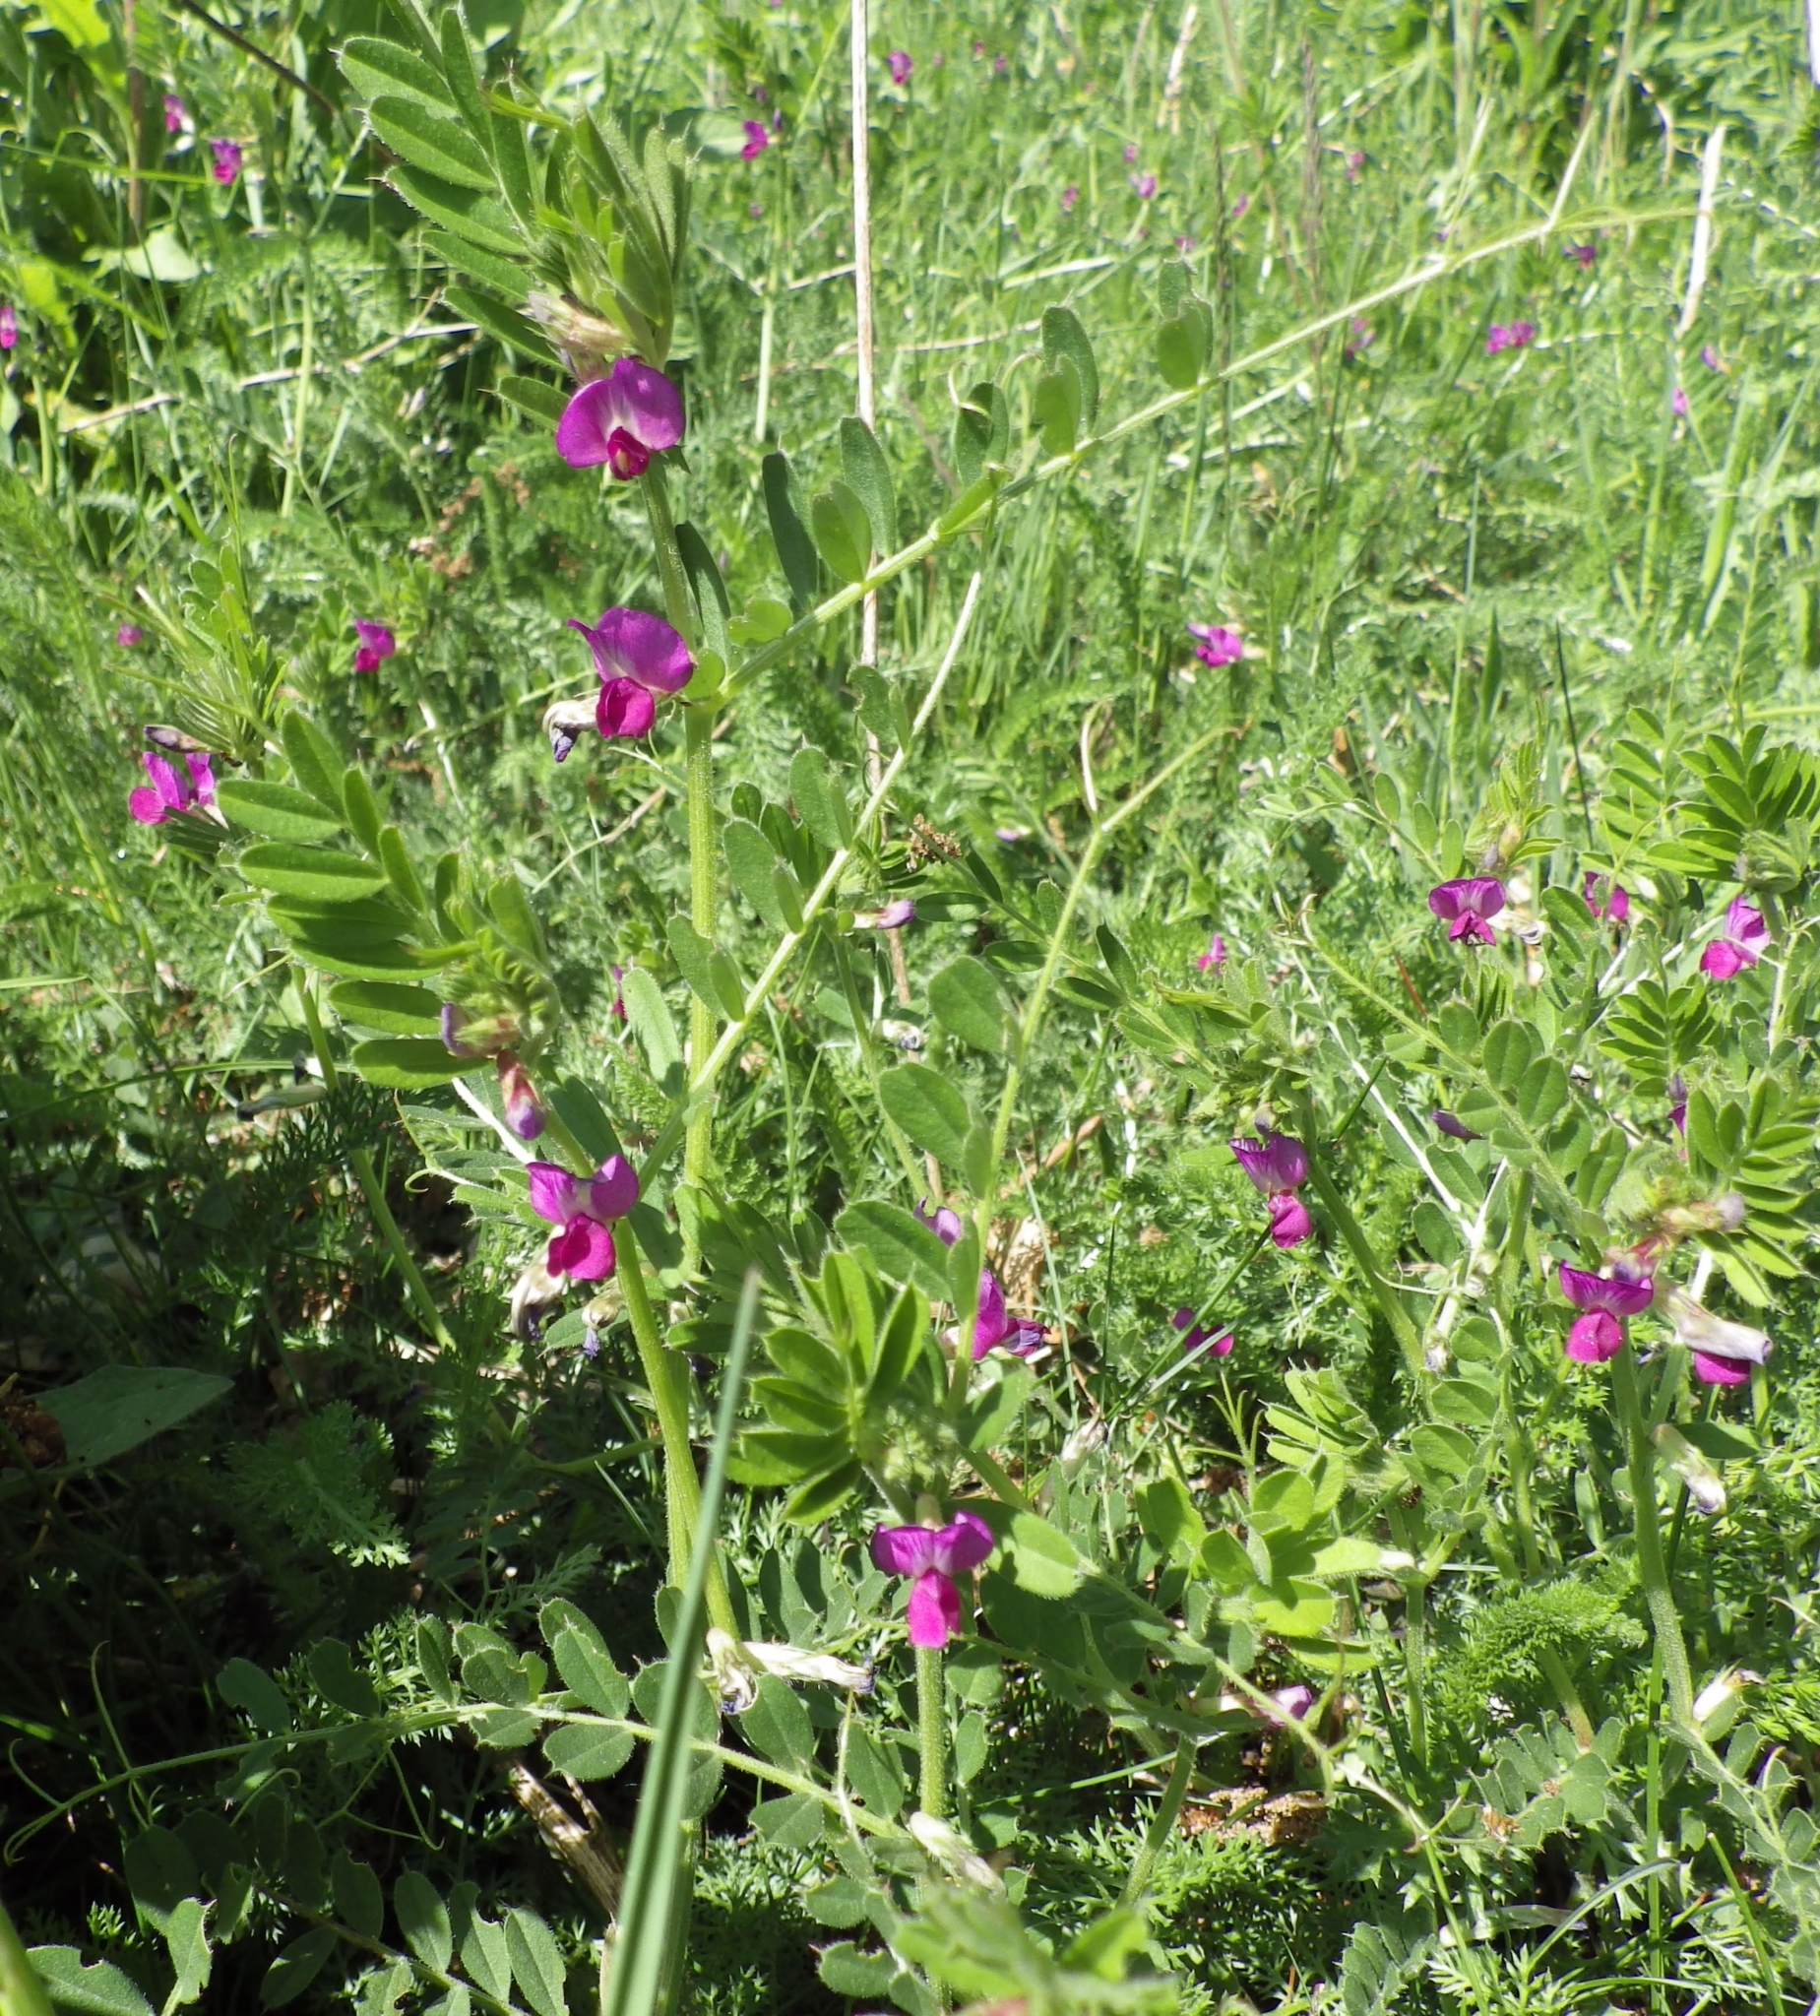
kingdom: Plantae
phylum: Tracheophyta
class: Magnoliopsida
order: Fabales
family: Fabaceae
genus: Vicia
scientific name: Vicia sativa
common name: Garden vetch
